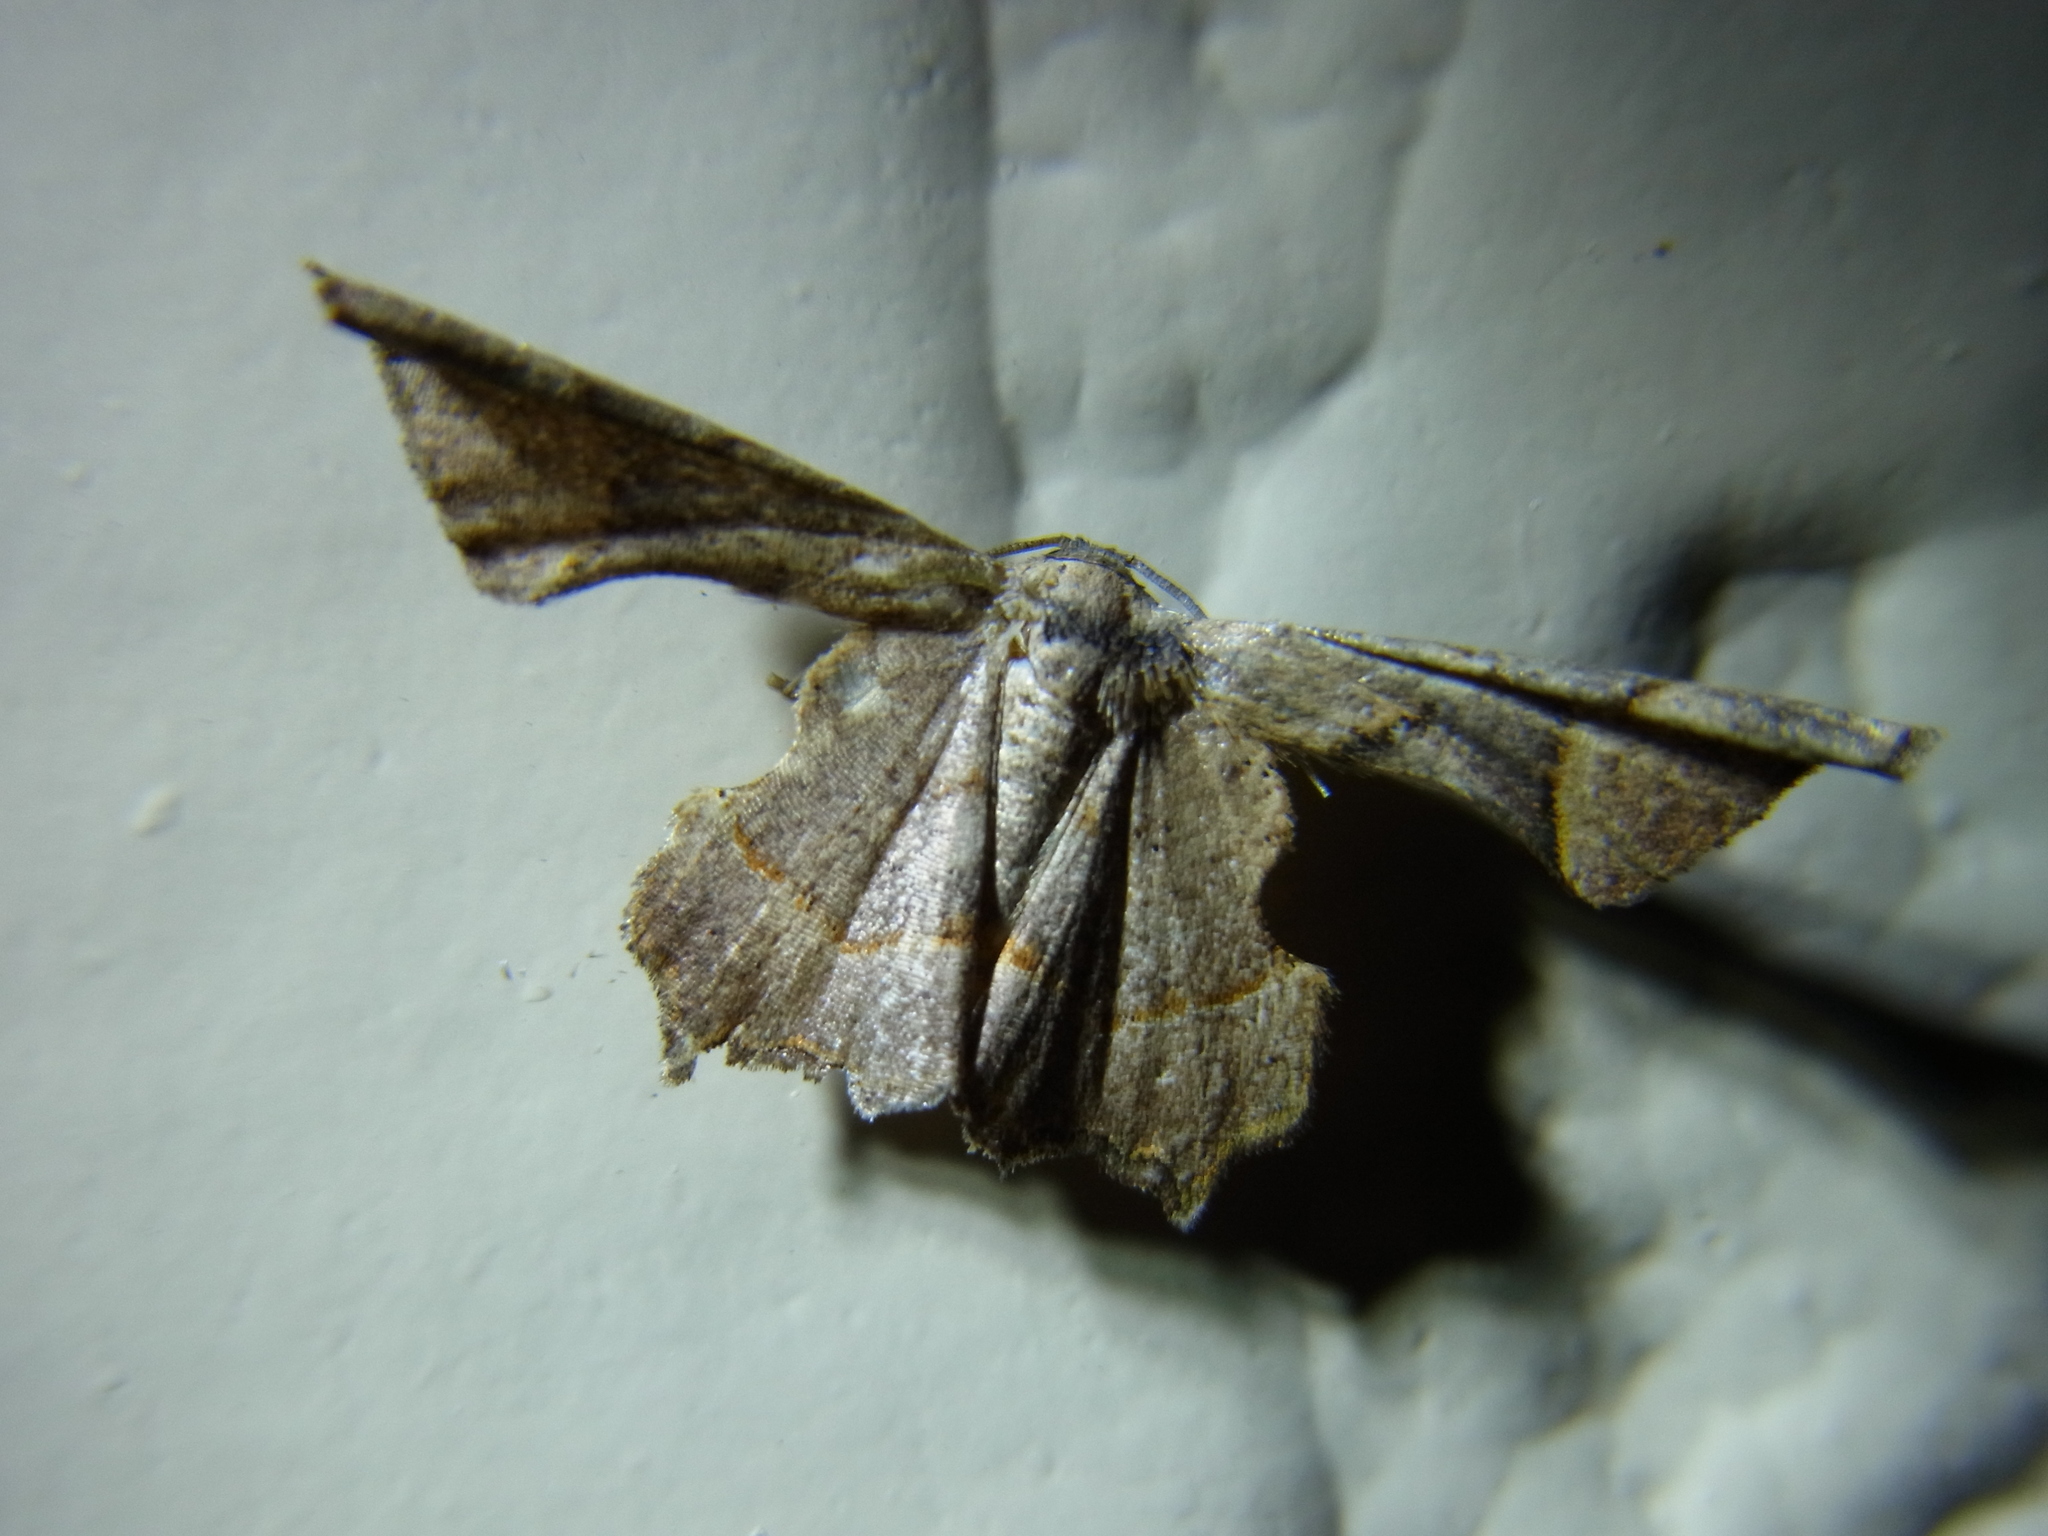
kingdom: Animalia
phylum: Arthropoda
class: Insecta
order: Lepidoptera
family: Uraniidae
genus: Monobolodes
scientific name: Monobolodes prunaria
